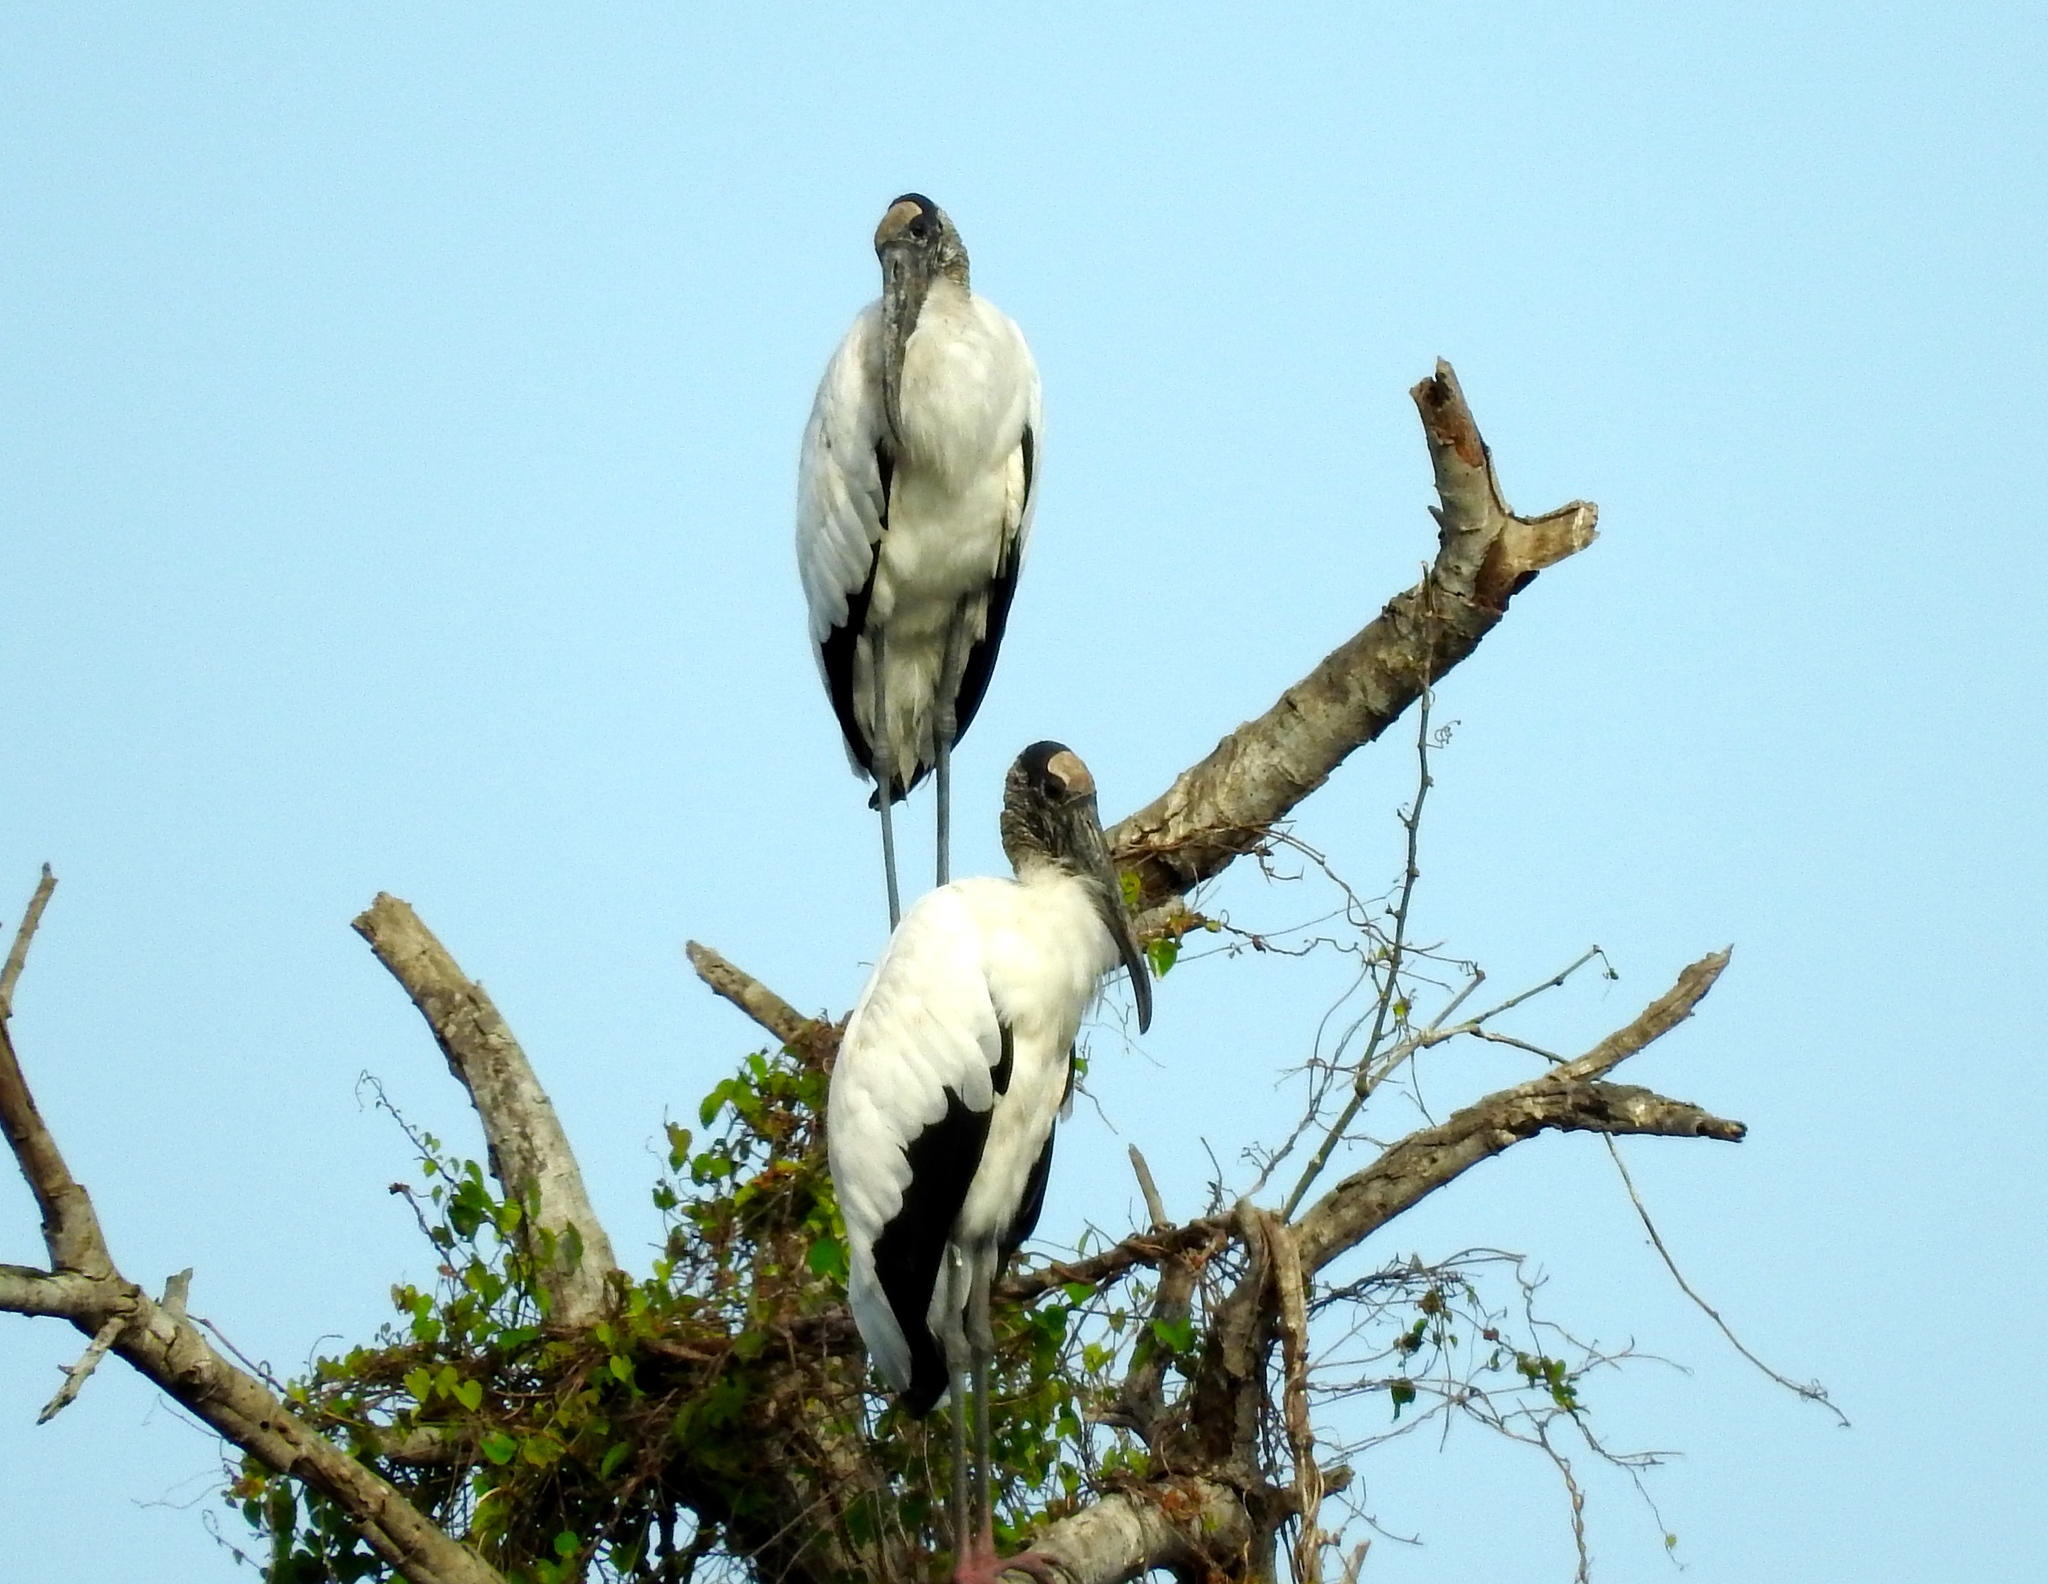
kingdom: Animalia
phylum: Chordata
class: Aves
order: Ciconiiformes
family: Ciconiidae
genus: Mycteria
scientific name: Mycteria americana
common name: Wood stork
